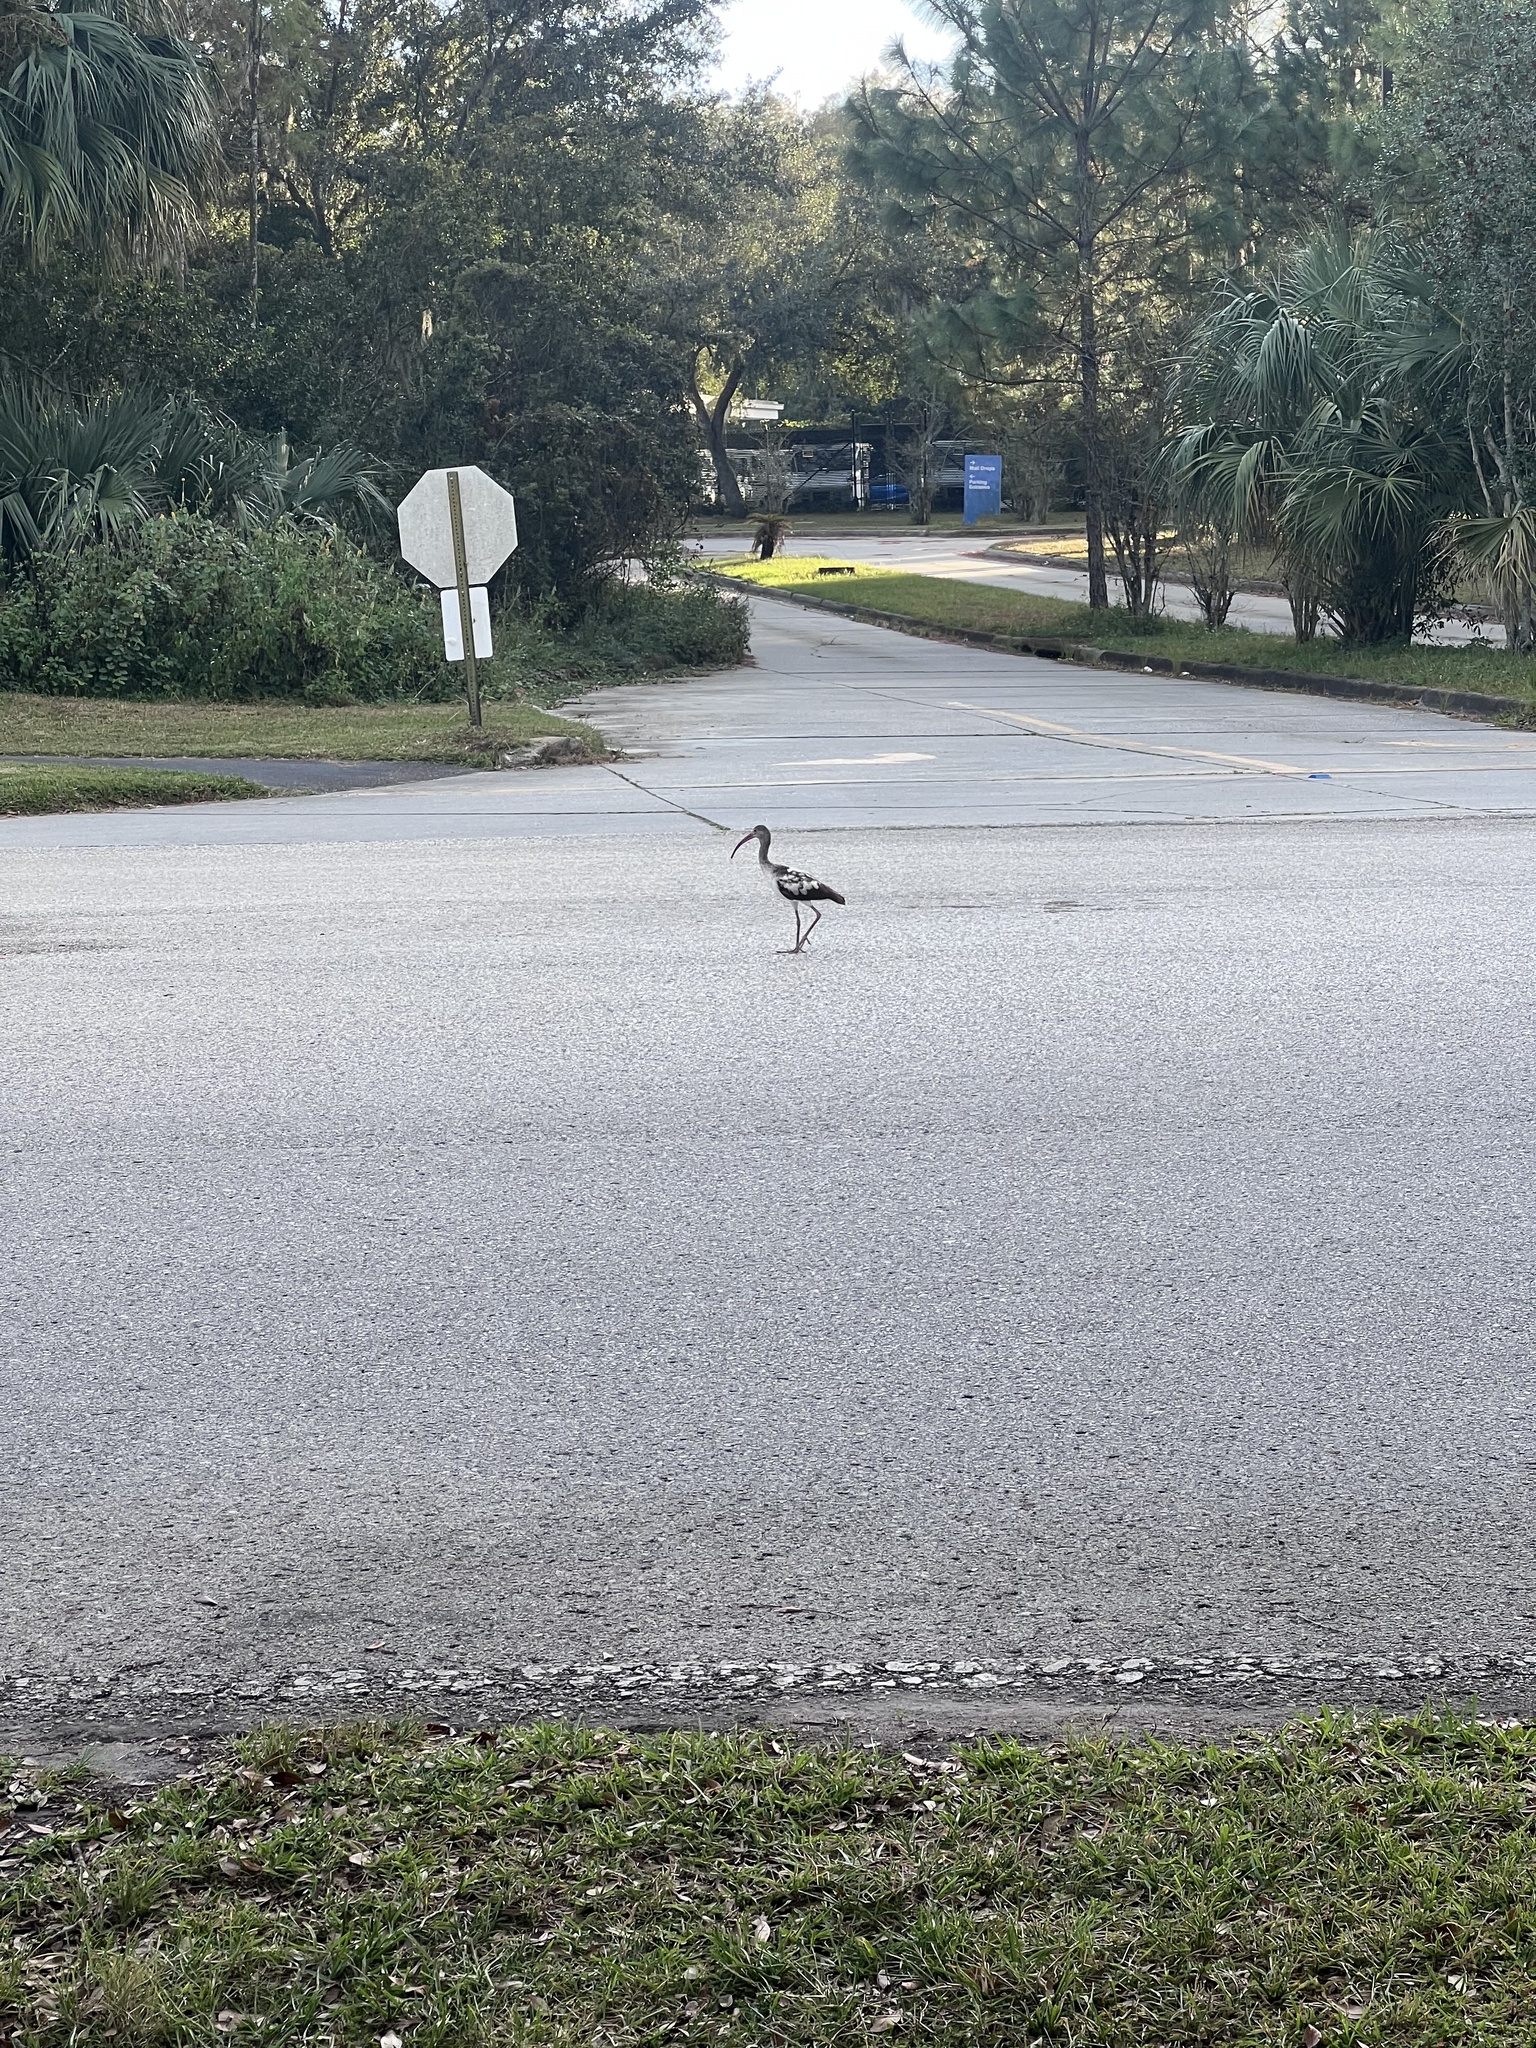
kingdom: Animalia
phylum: Chordata
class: Aves
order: Pelecaniformes
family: Threskiornithidae
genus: Eudocimus
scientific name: Eudocimus albus
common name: White ibis
